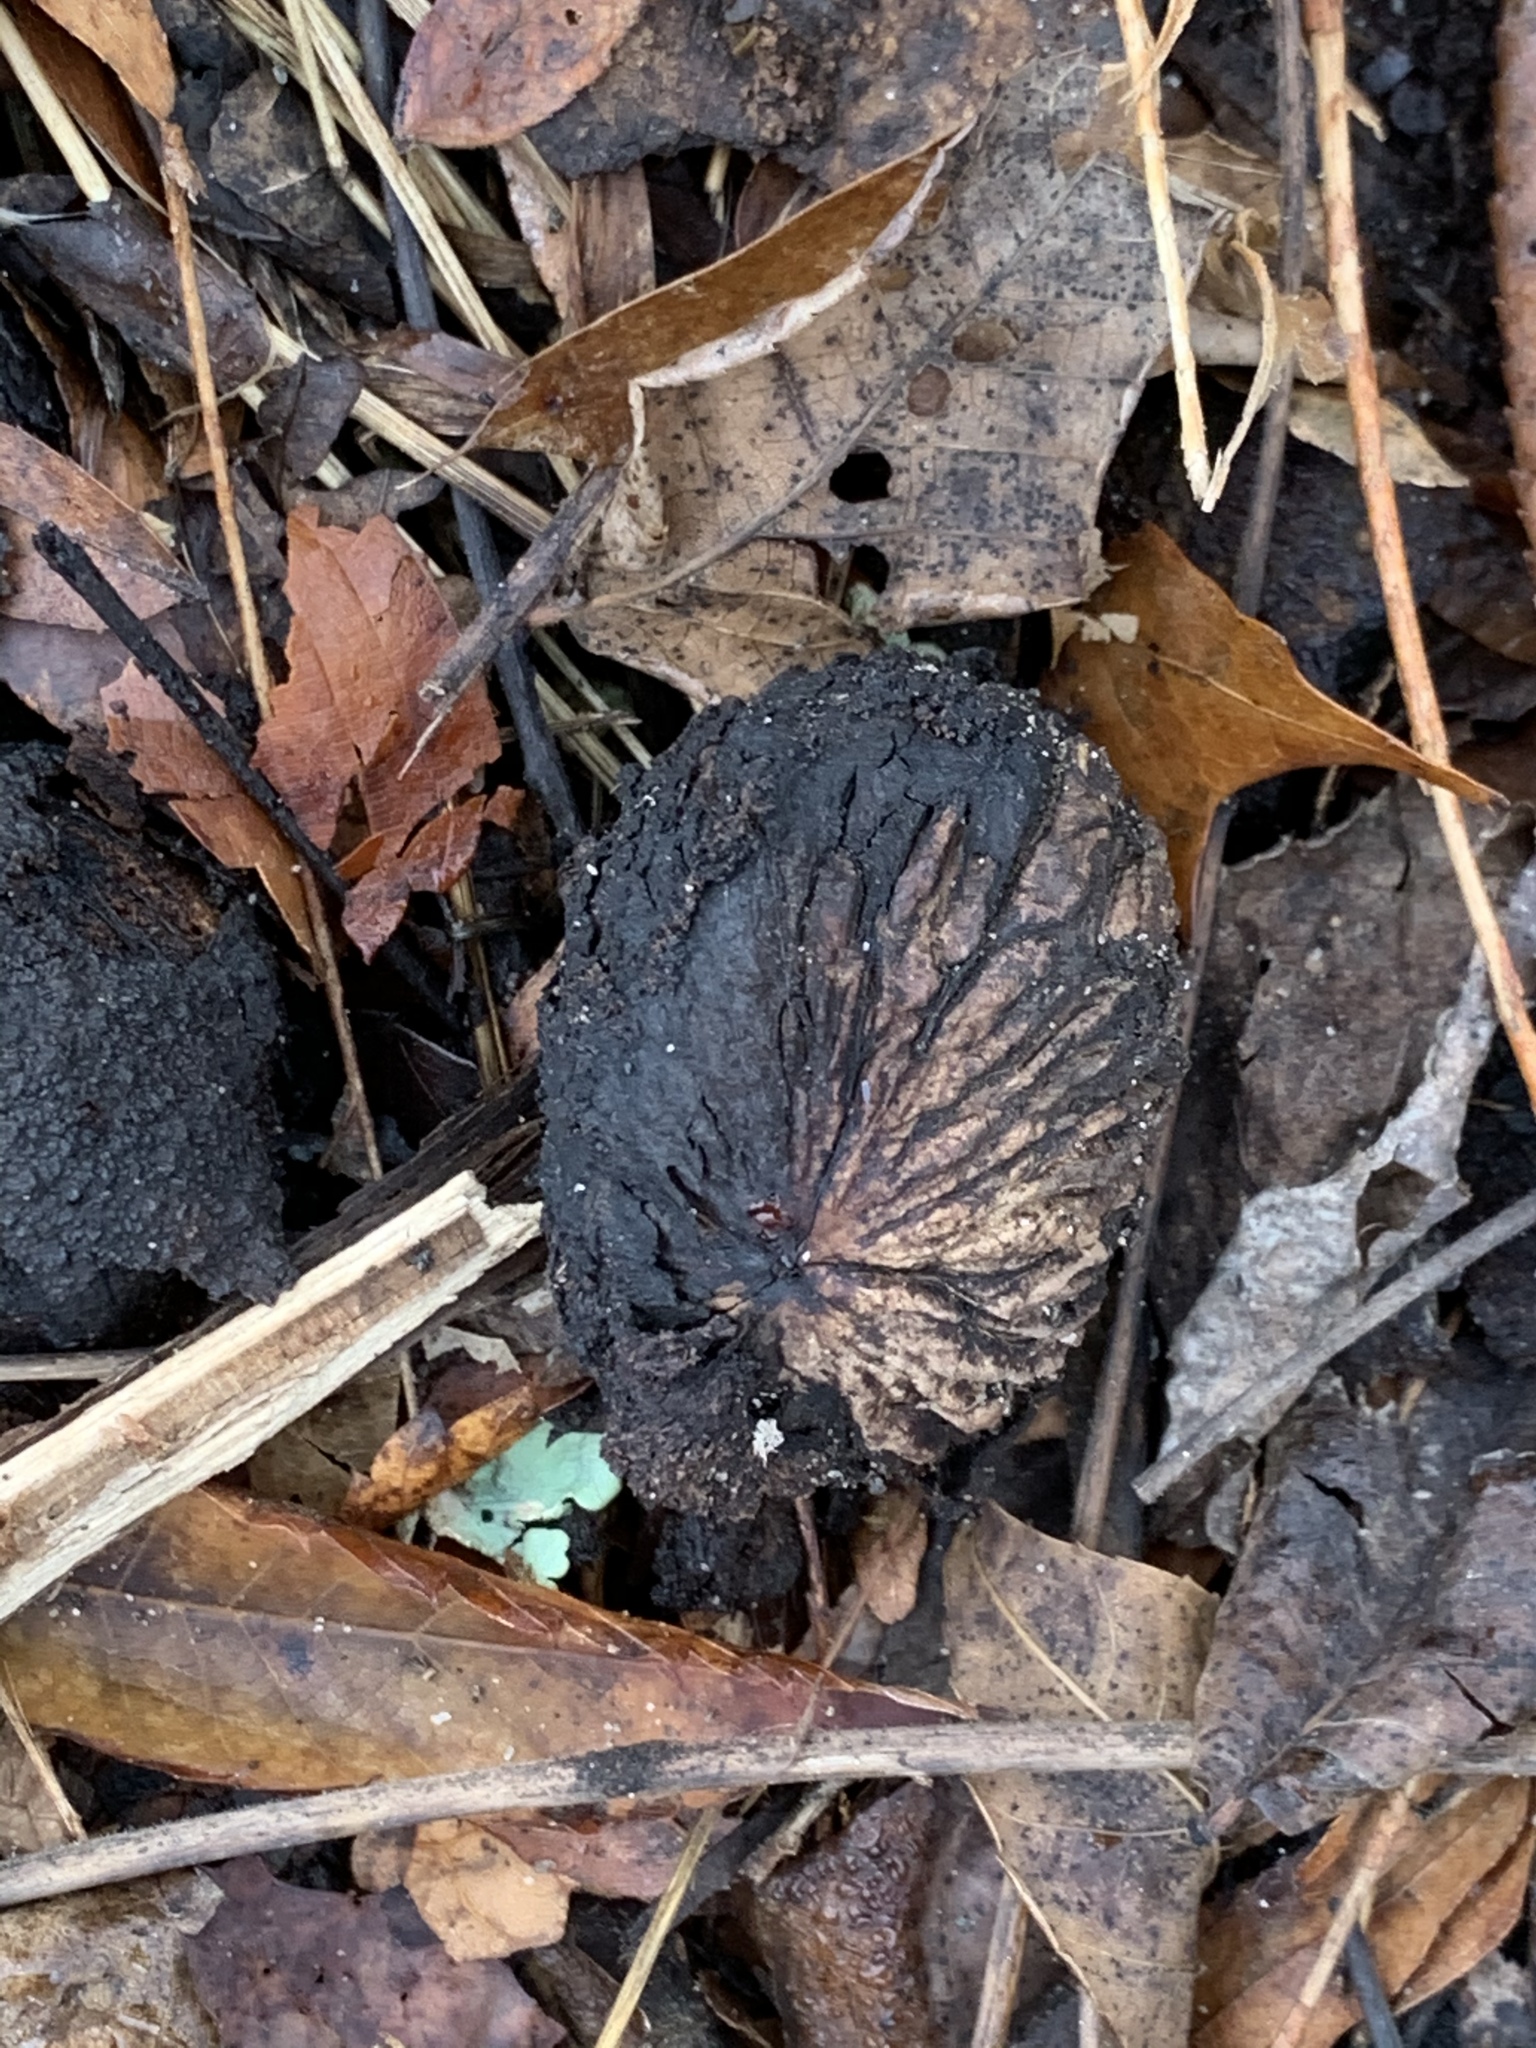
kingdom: Plantae
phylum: Tracheophyta
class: Magnoliopsida
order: Fagales
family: Juglandaceae
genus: Juglans
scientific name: Juglans nigra
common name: Black walnut
